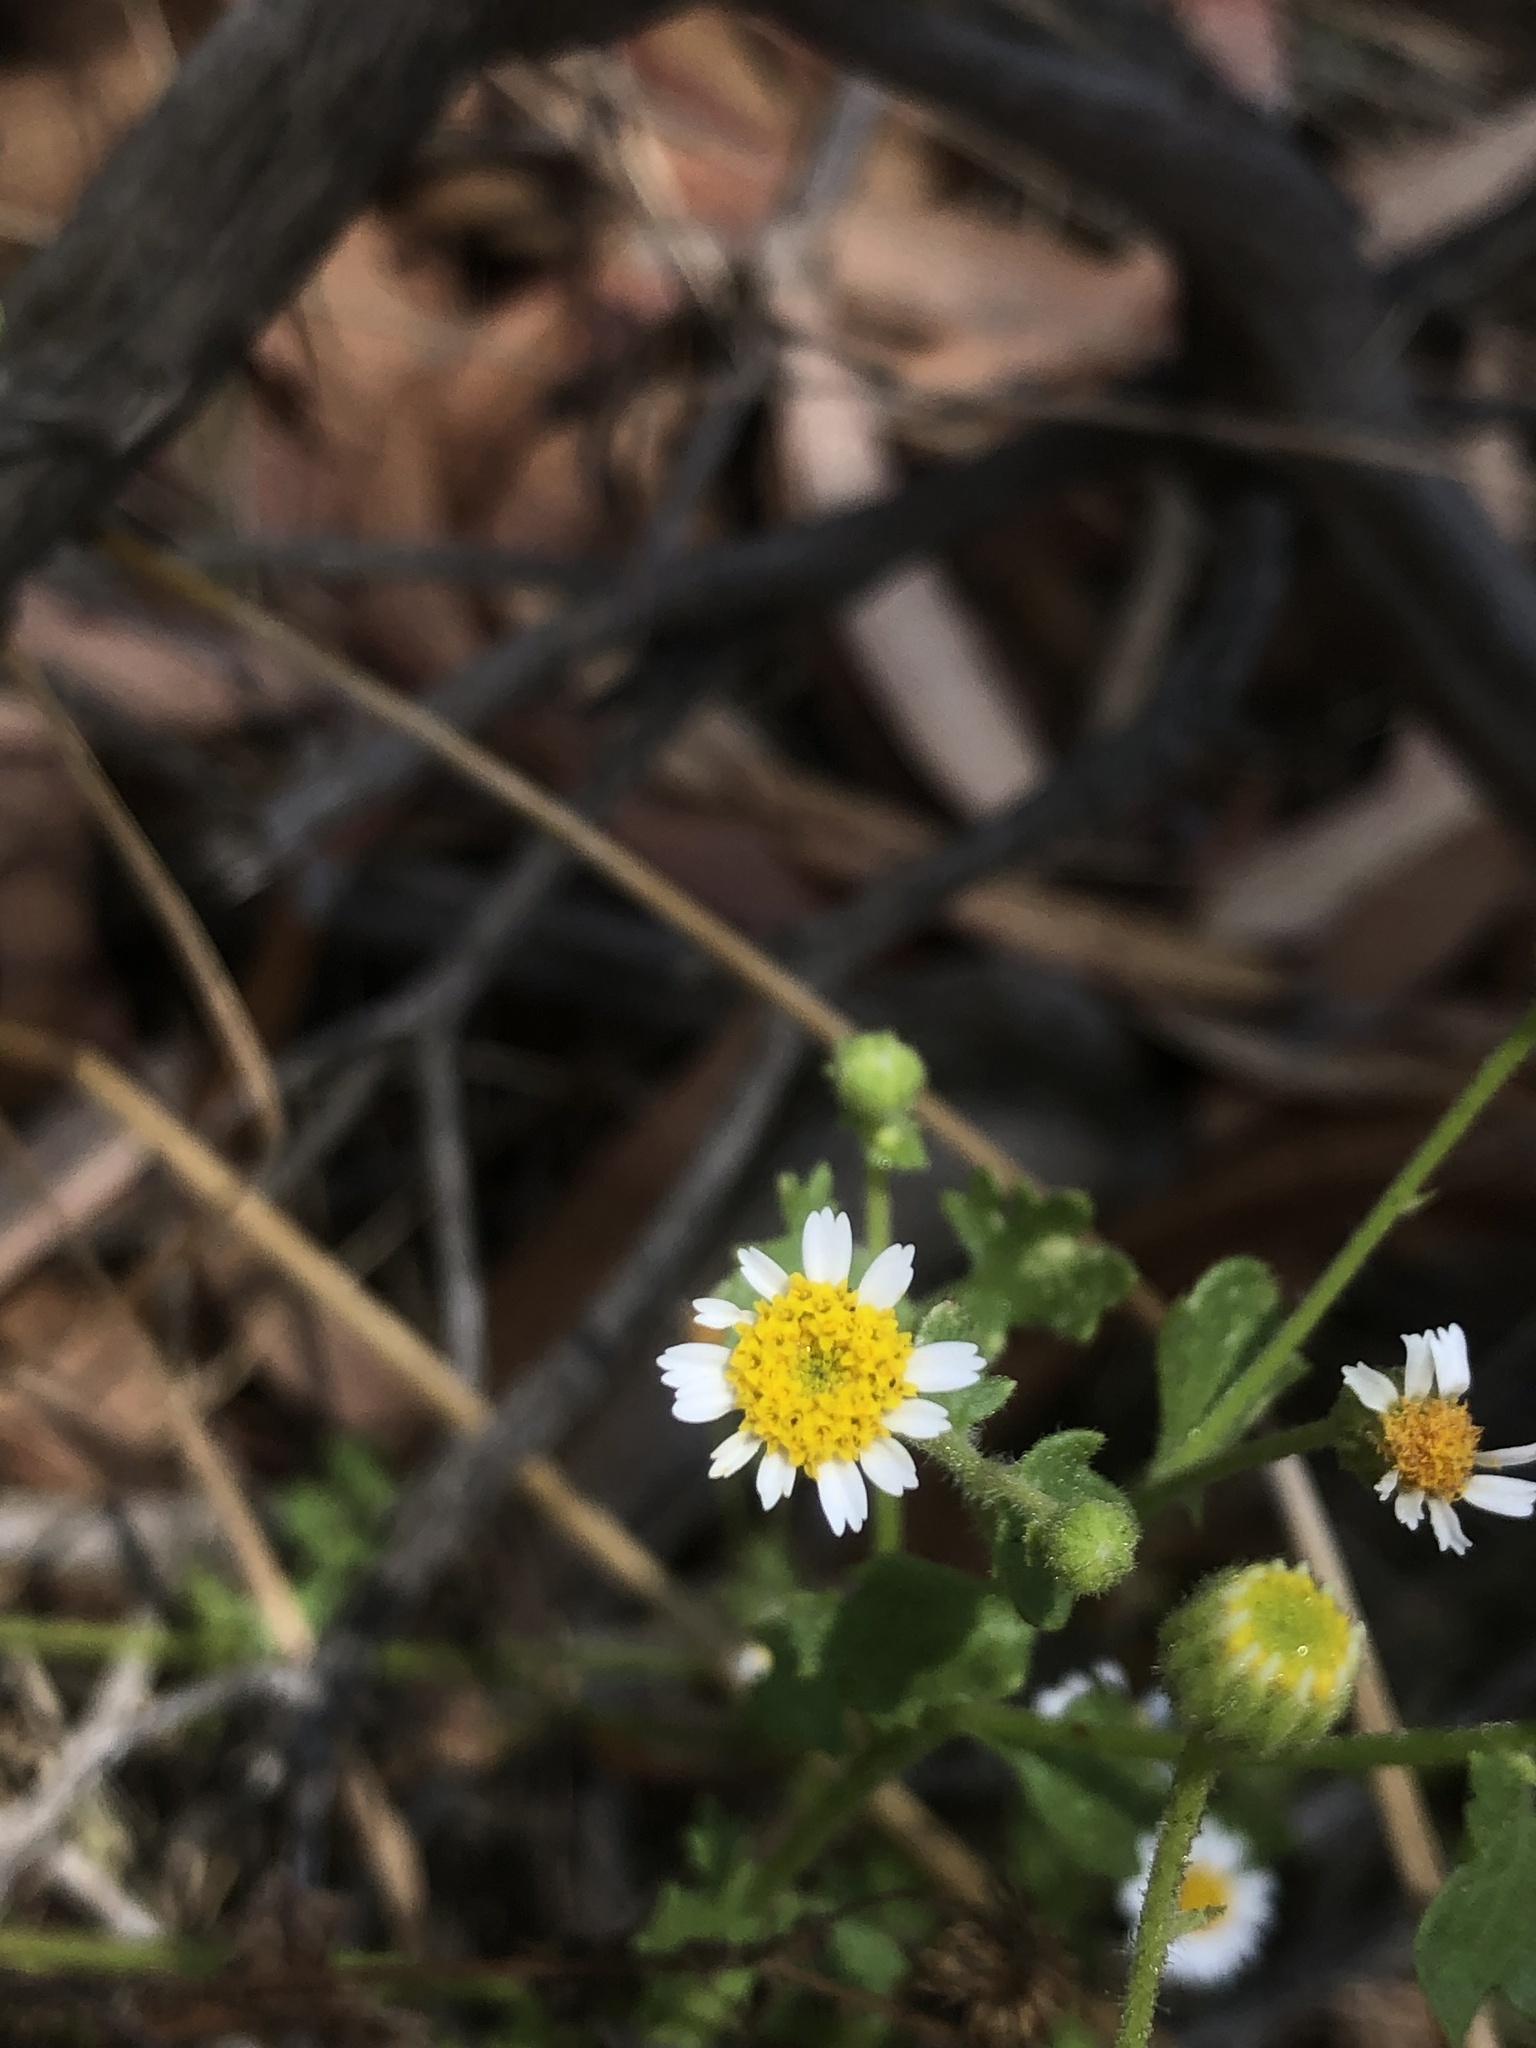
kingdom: Plantae
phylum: Tracheophyta
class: Magnoliopsida
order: Asterales
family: Asteraceae
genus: Laphamia
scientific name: Laphamia emoryi
